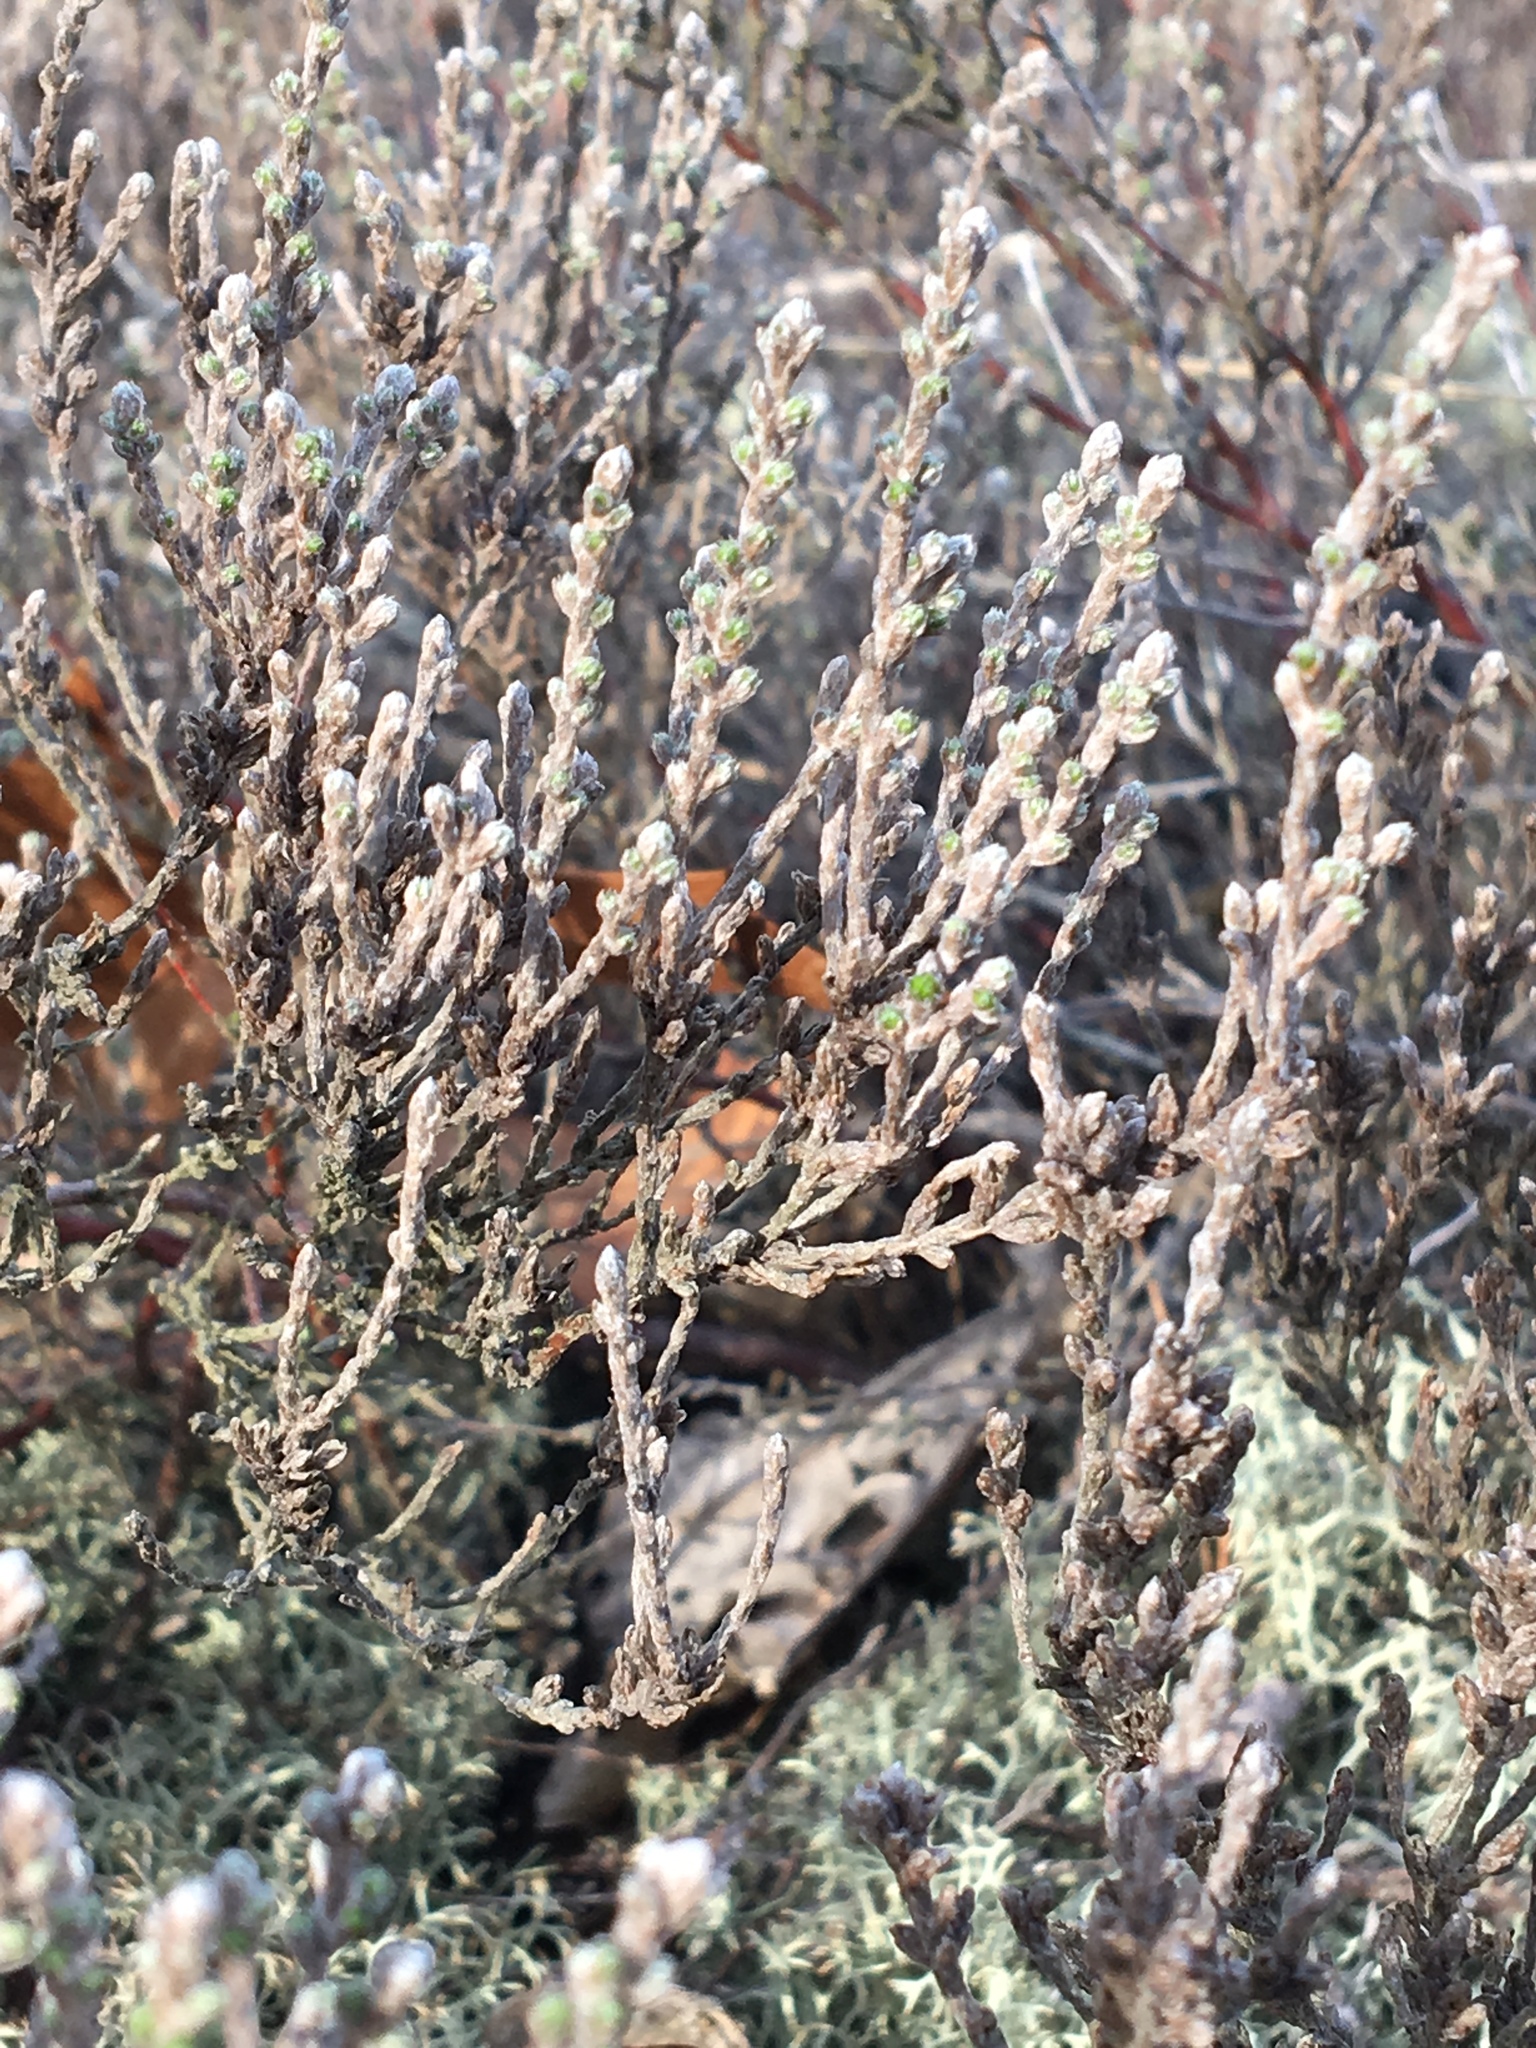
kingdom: Plantae
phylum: Tracheophyta
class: Magnoliopsida
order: Malvales
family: Cistaceae
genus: Hudsonia
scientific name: Hudsonia tomentosa
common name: Beach-heath
